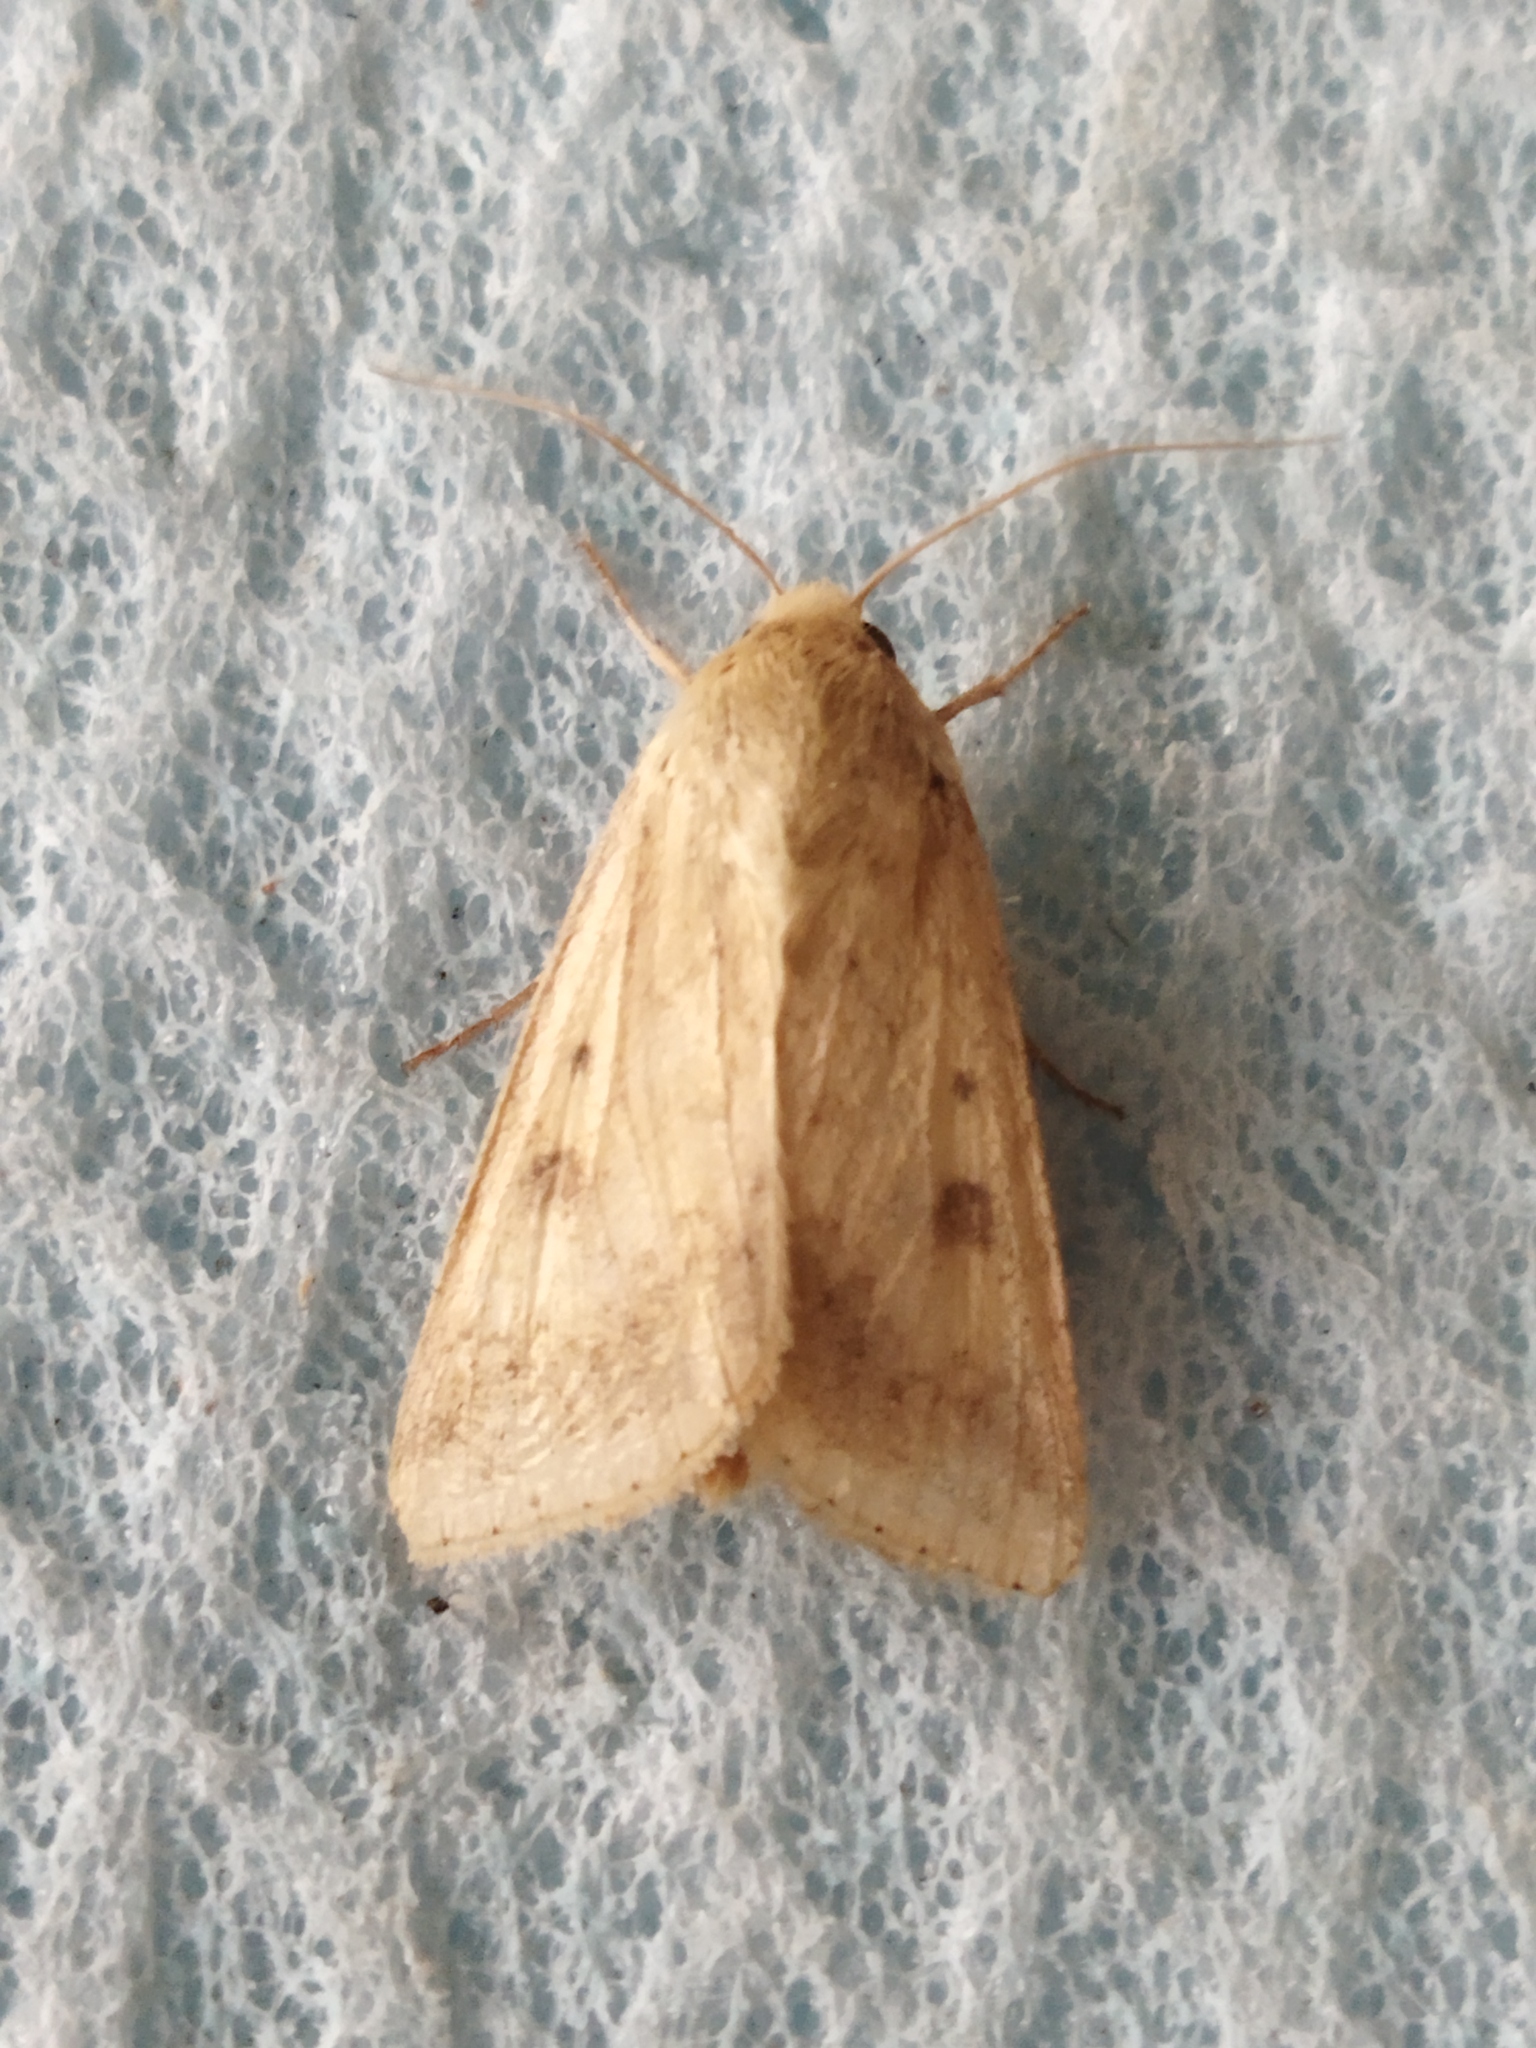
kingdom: Animalia
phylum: Arthropoda
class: Insecta
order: Lepidoptera
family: Noctuidae
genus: Helicoverpa
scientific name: Helicoverpa armigera
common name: Cotton bollworm
